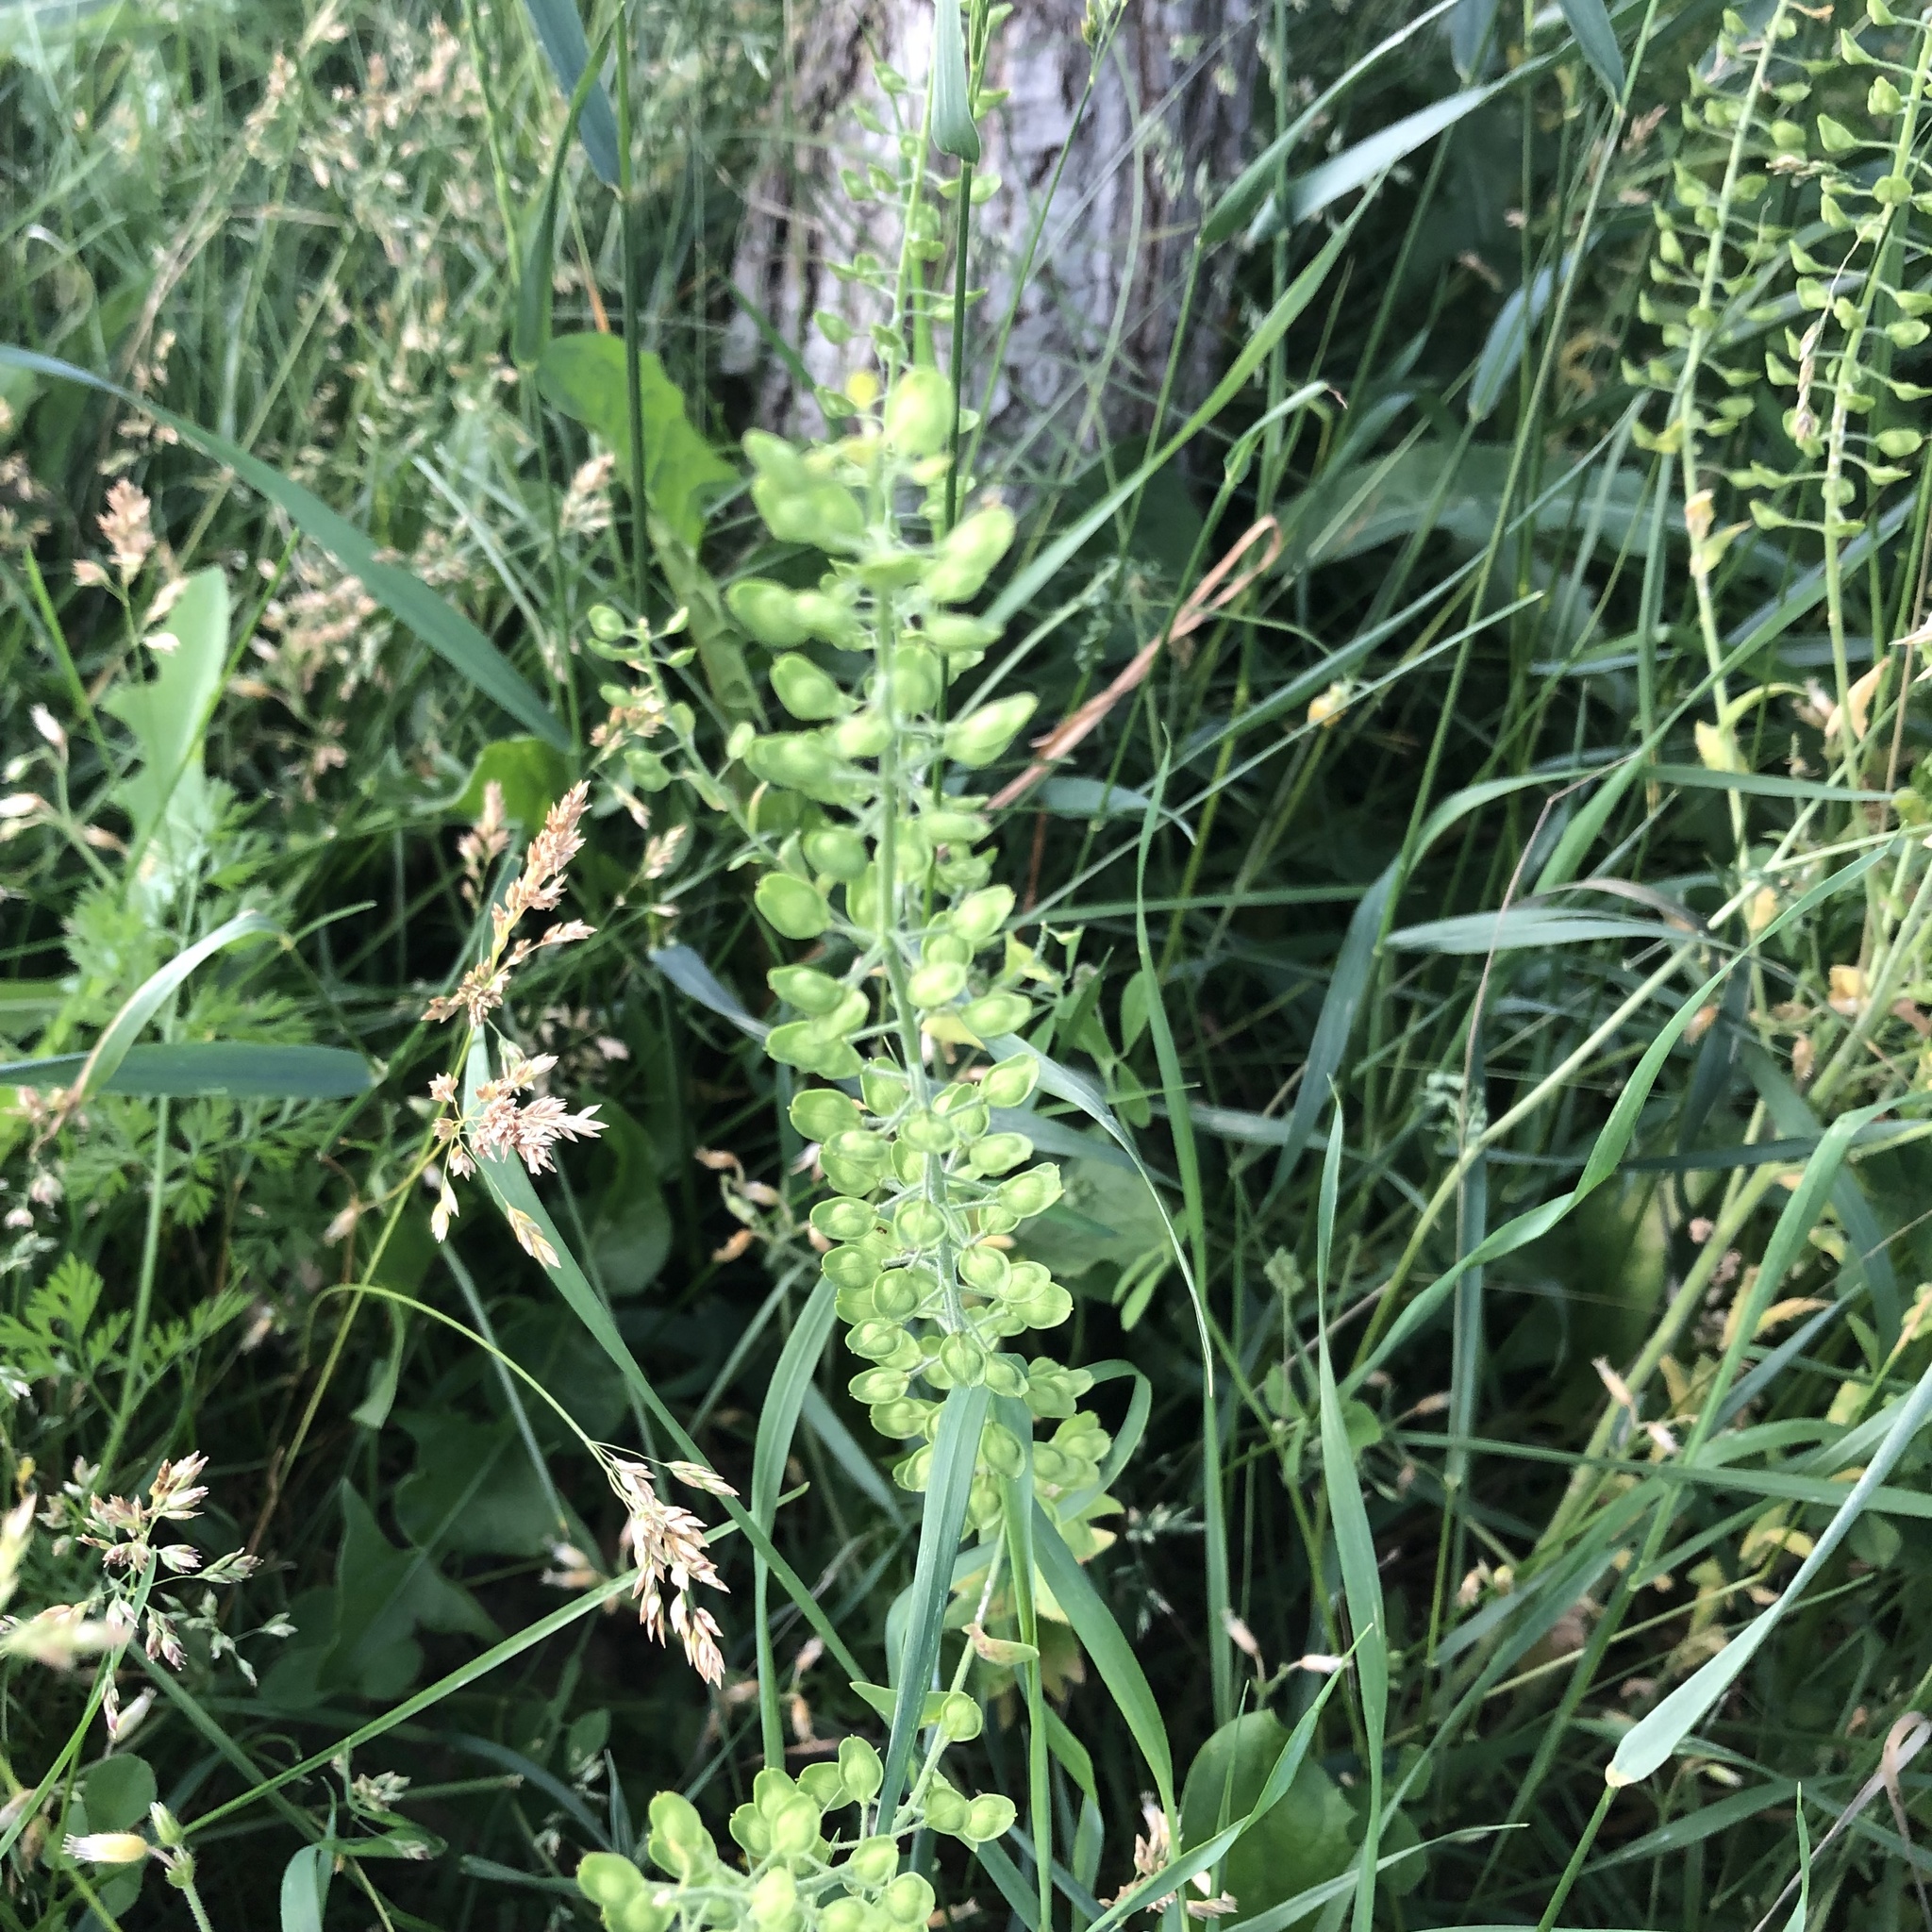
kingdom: Plantae
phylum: Tracheophyta
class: Magnoliopsida
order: Brassicales
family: Brassicaceae
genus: Lepidium
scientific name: Lepidium campestre
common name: Field pepperwort
